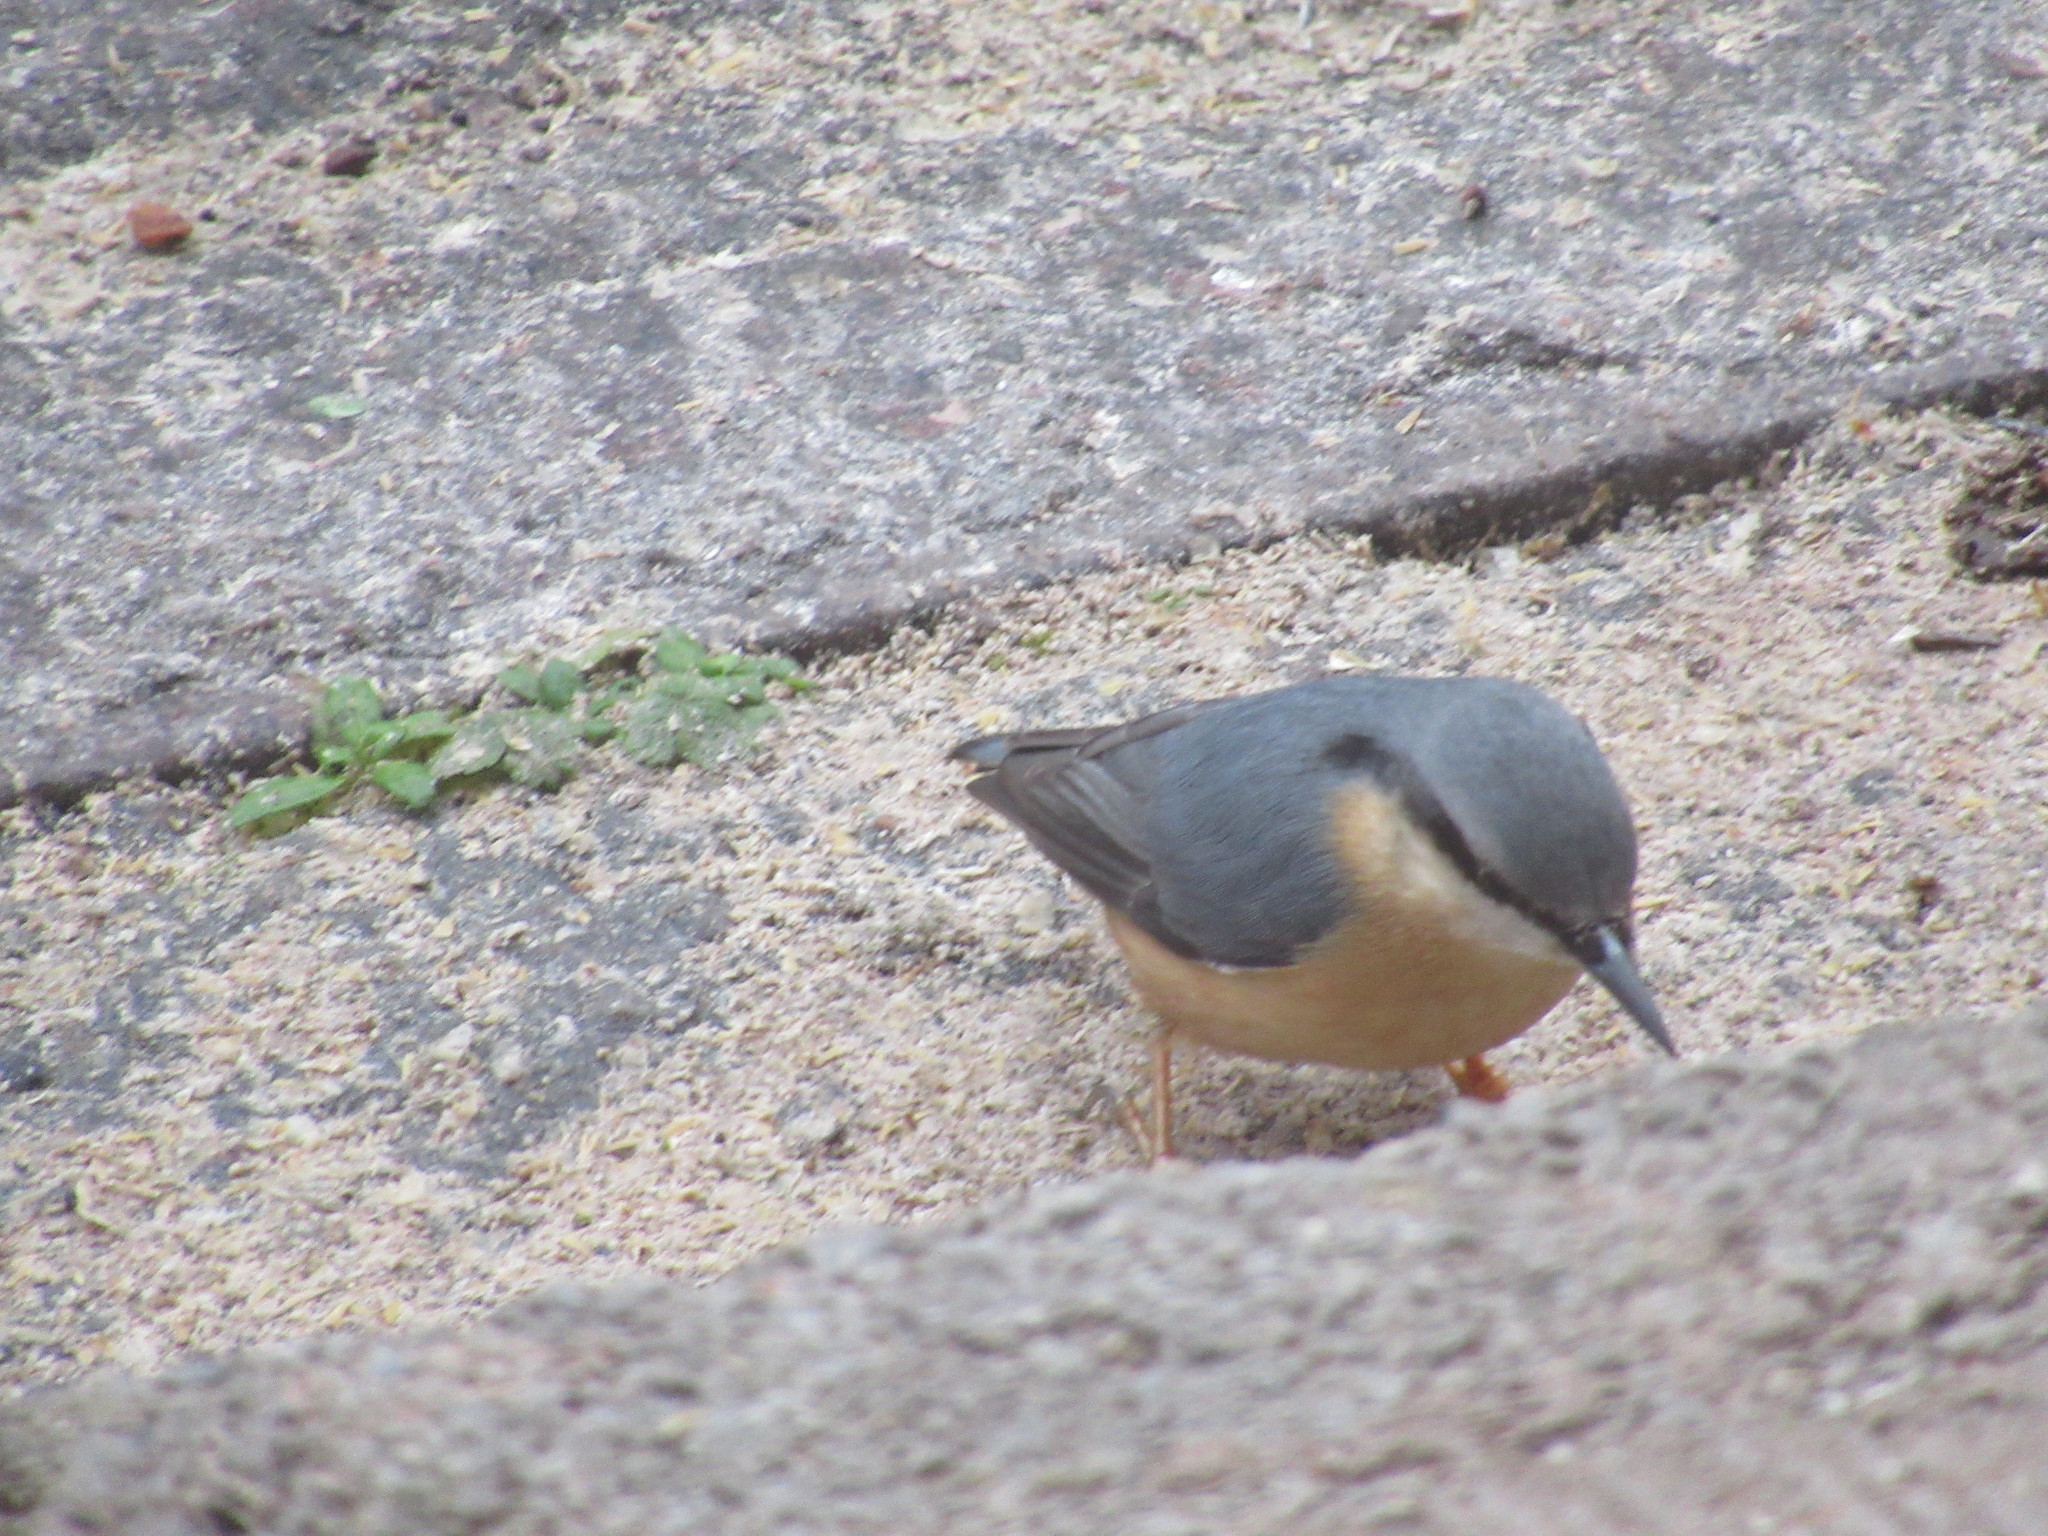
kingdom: Animalia
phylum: Chordata
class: Aves
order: Passeriformes
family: Sittidae
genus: Sitta
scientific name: Sitta europaea
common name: Eurasian nuthatch
